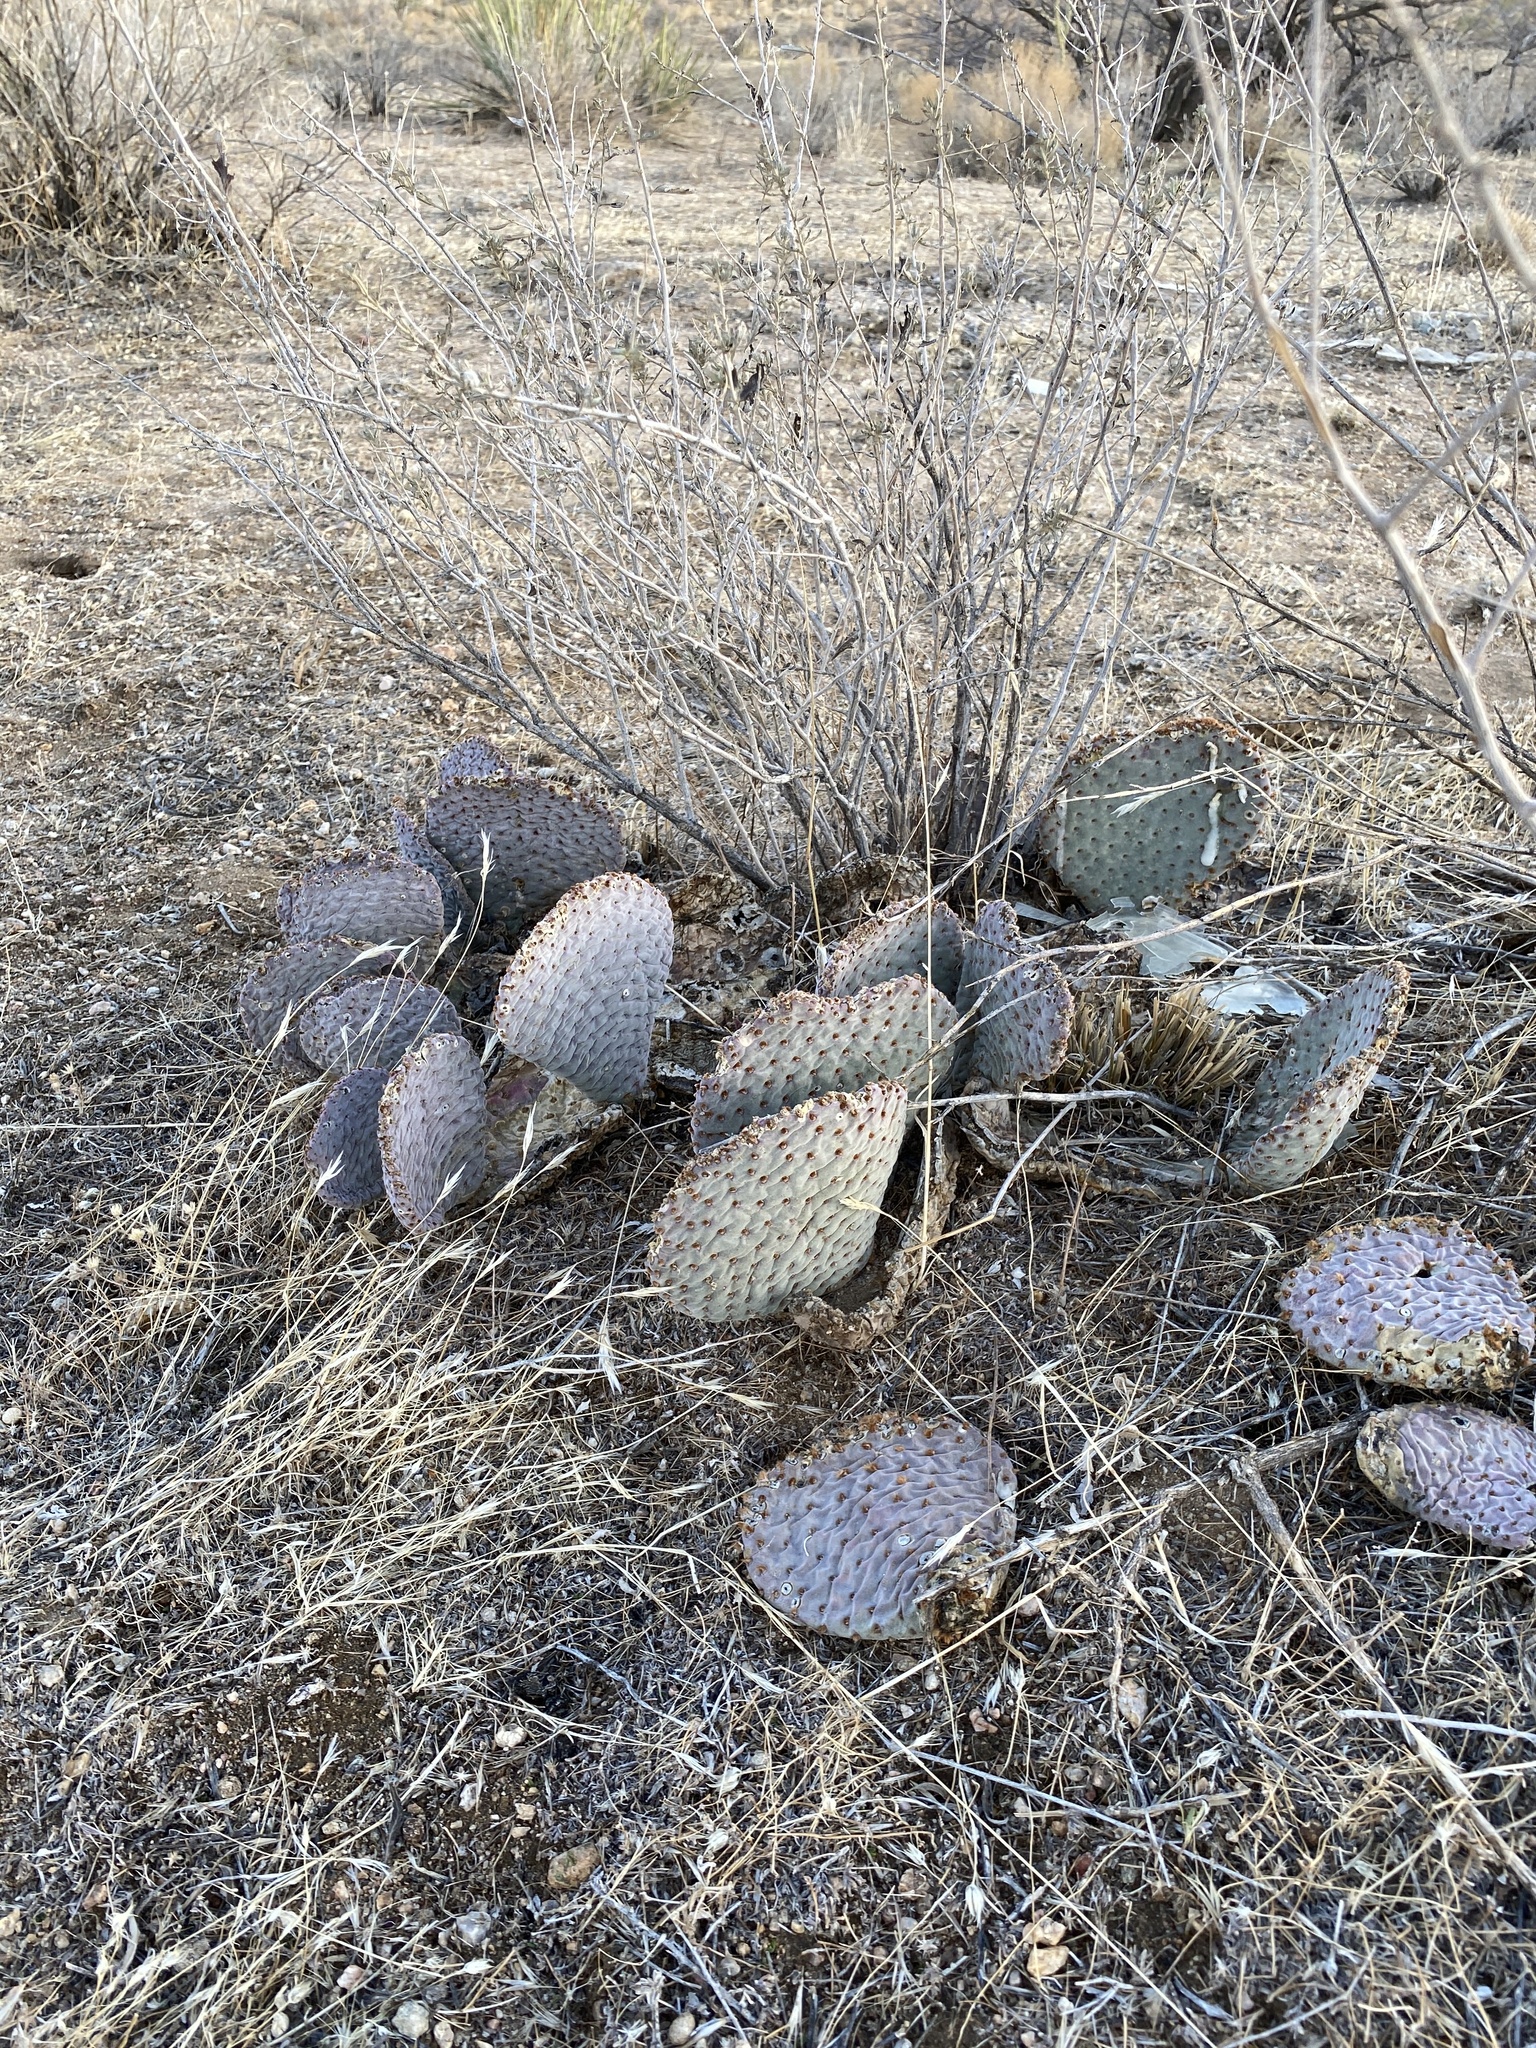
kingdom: Plantae
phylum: Tracheophyta
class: Magnoliopsida
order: Caryophyllales
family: Cactaceae
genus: Opuntia
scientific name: Opuntia basilaris
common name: Beavertail prickly-pear
